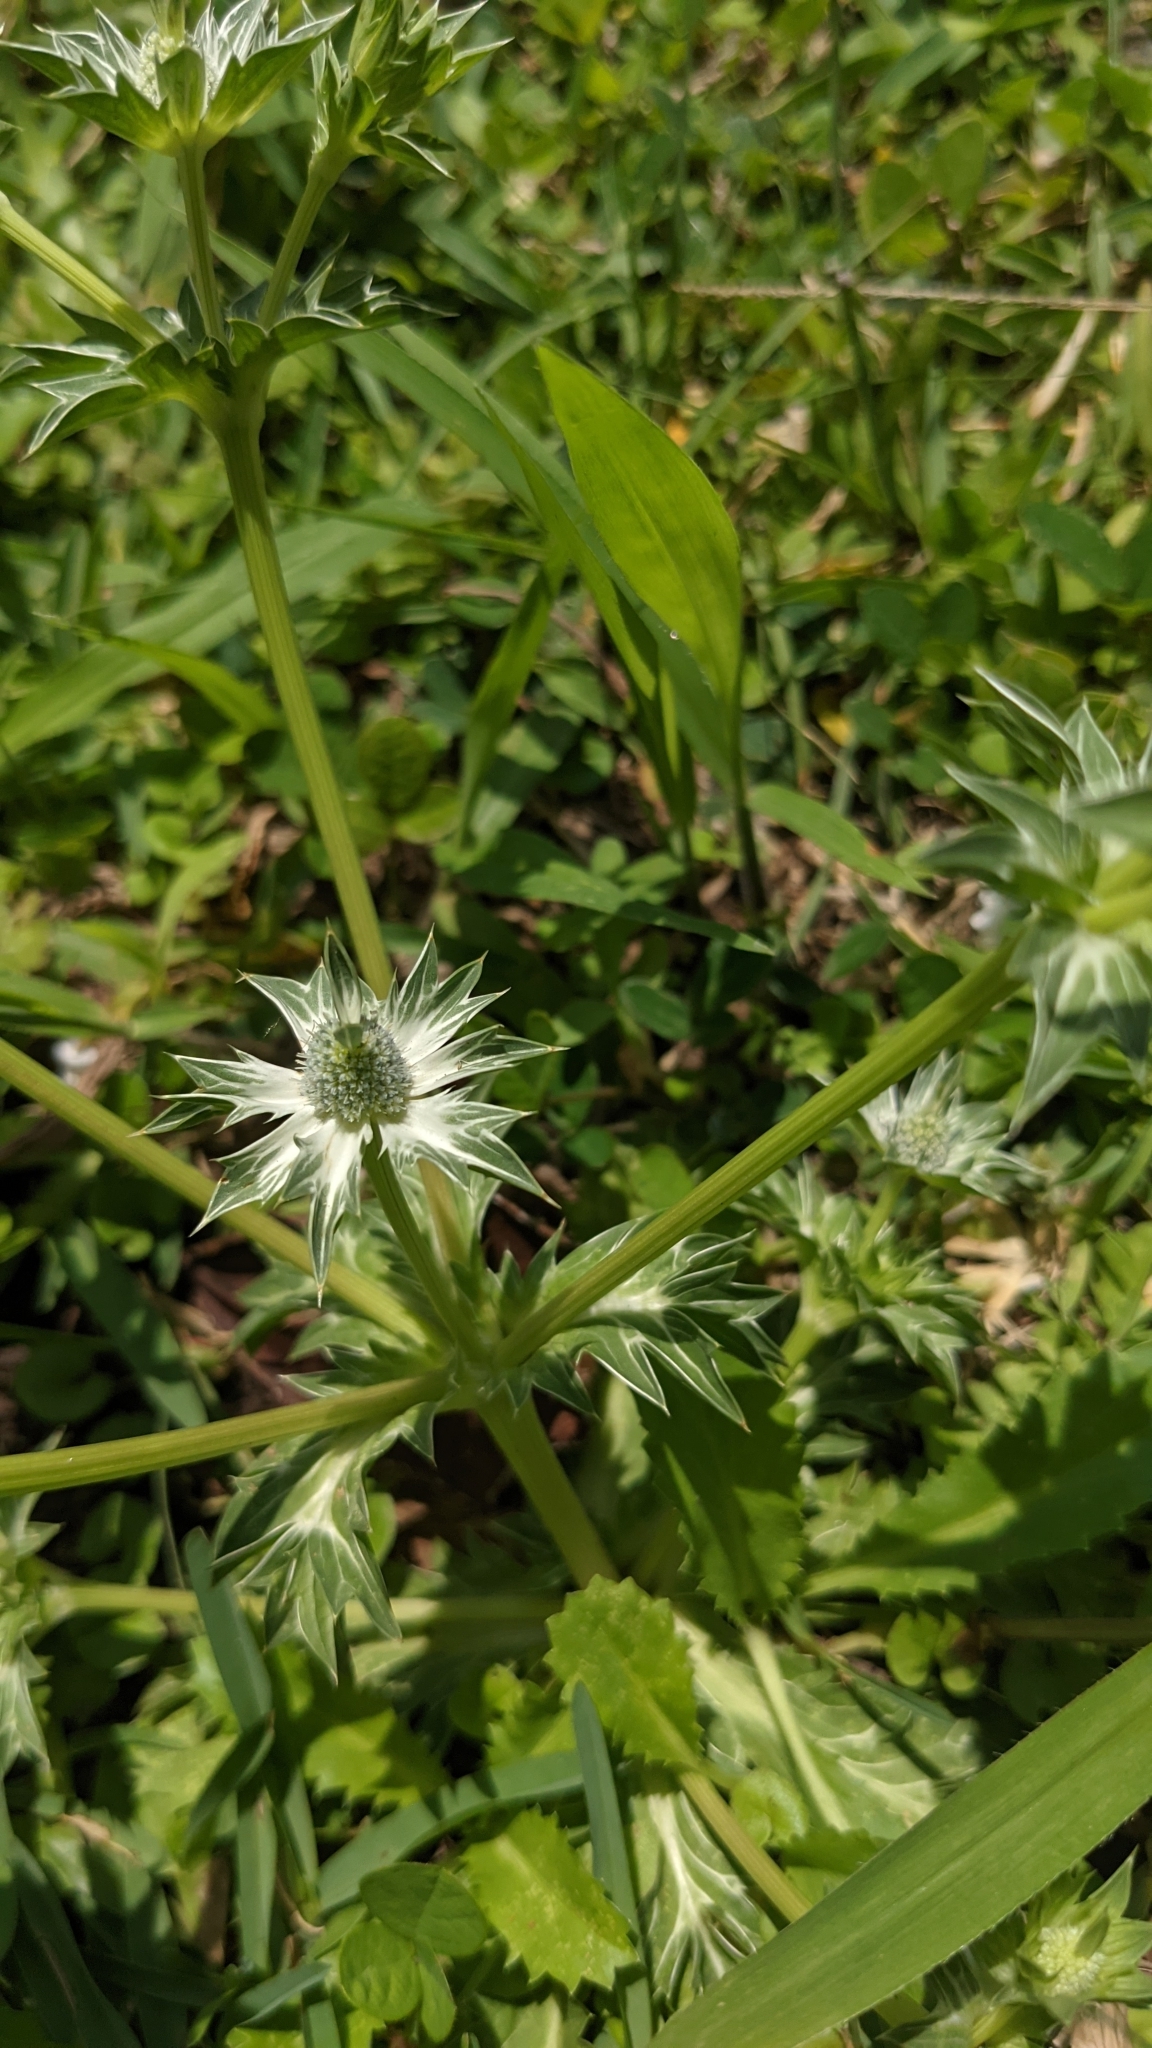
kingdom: Plantae
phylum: Tracheophyta
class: Magnoliopsida
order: Apiales
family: Apiaceae
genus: Eryngium
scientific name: Eryngium carlinae
